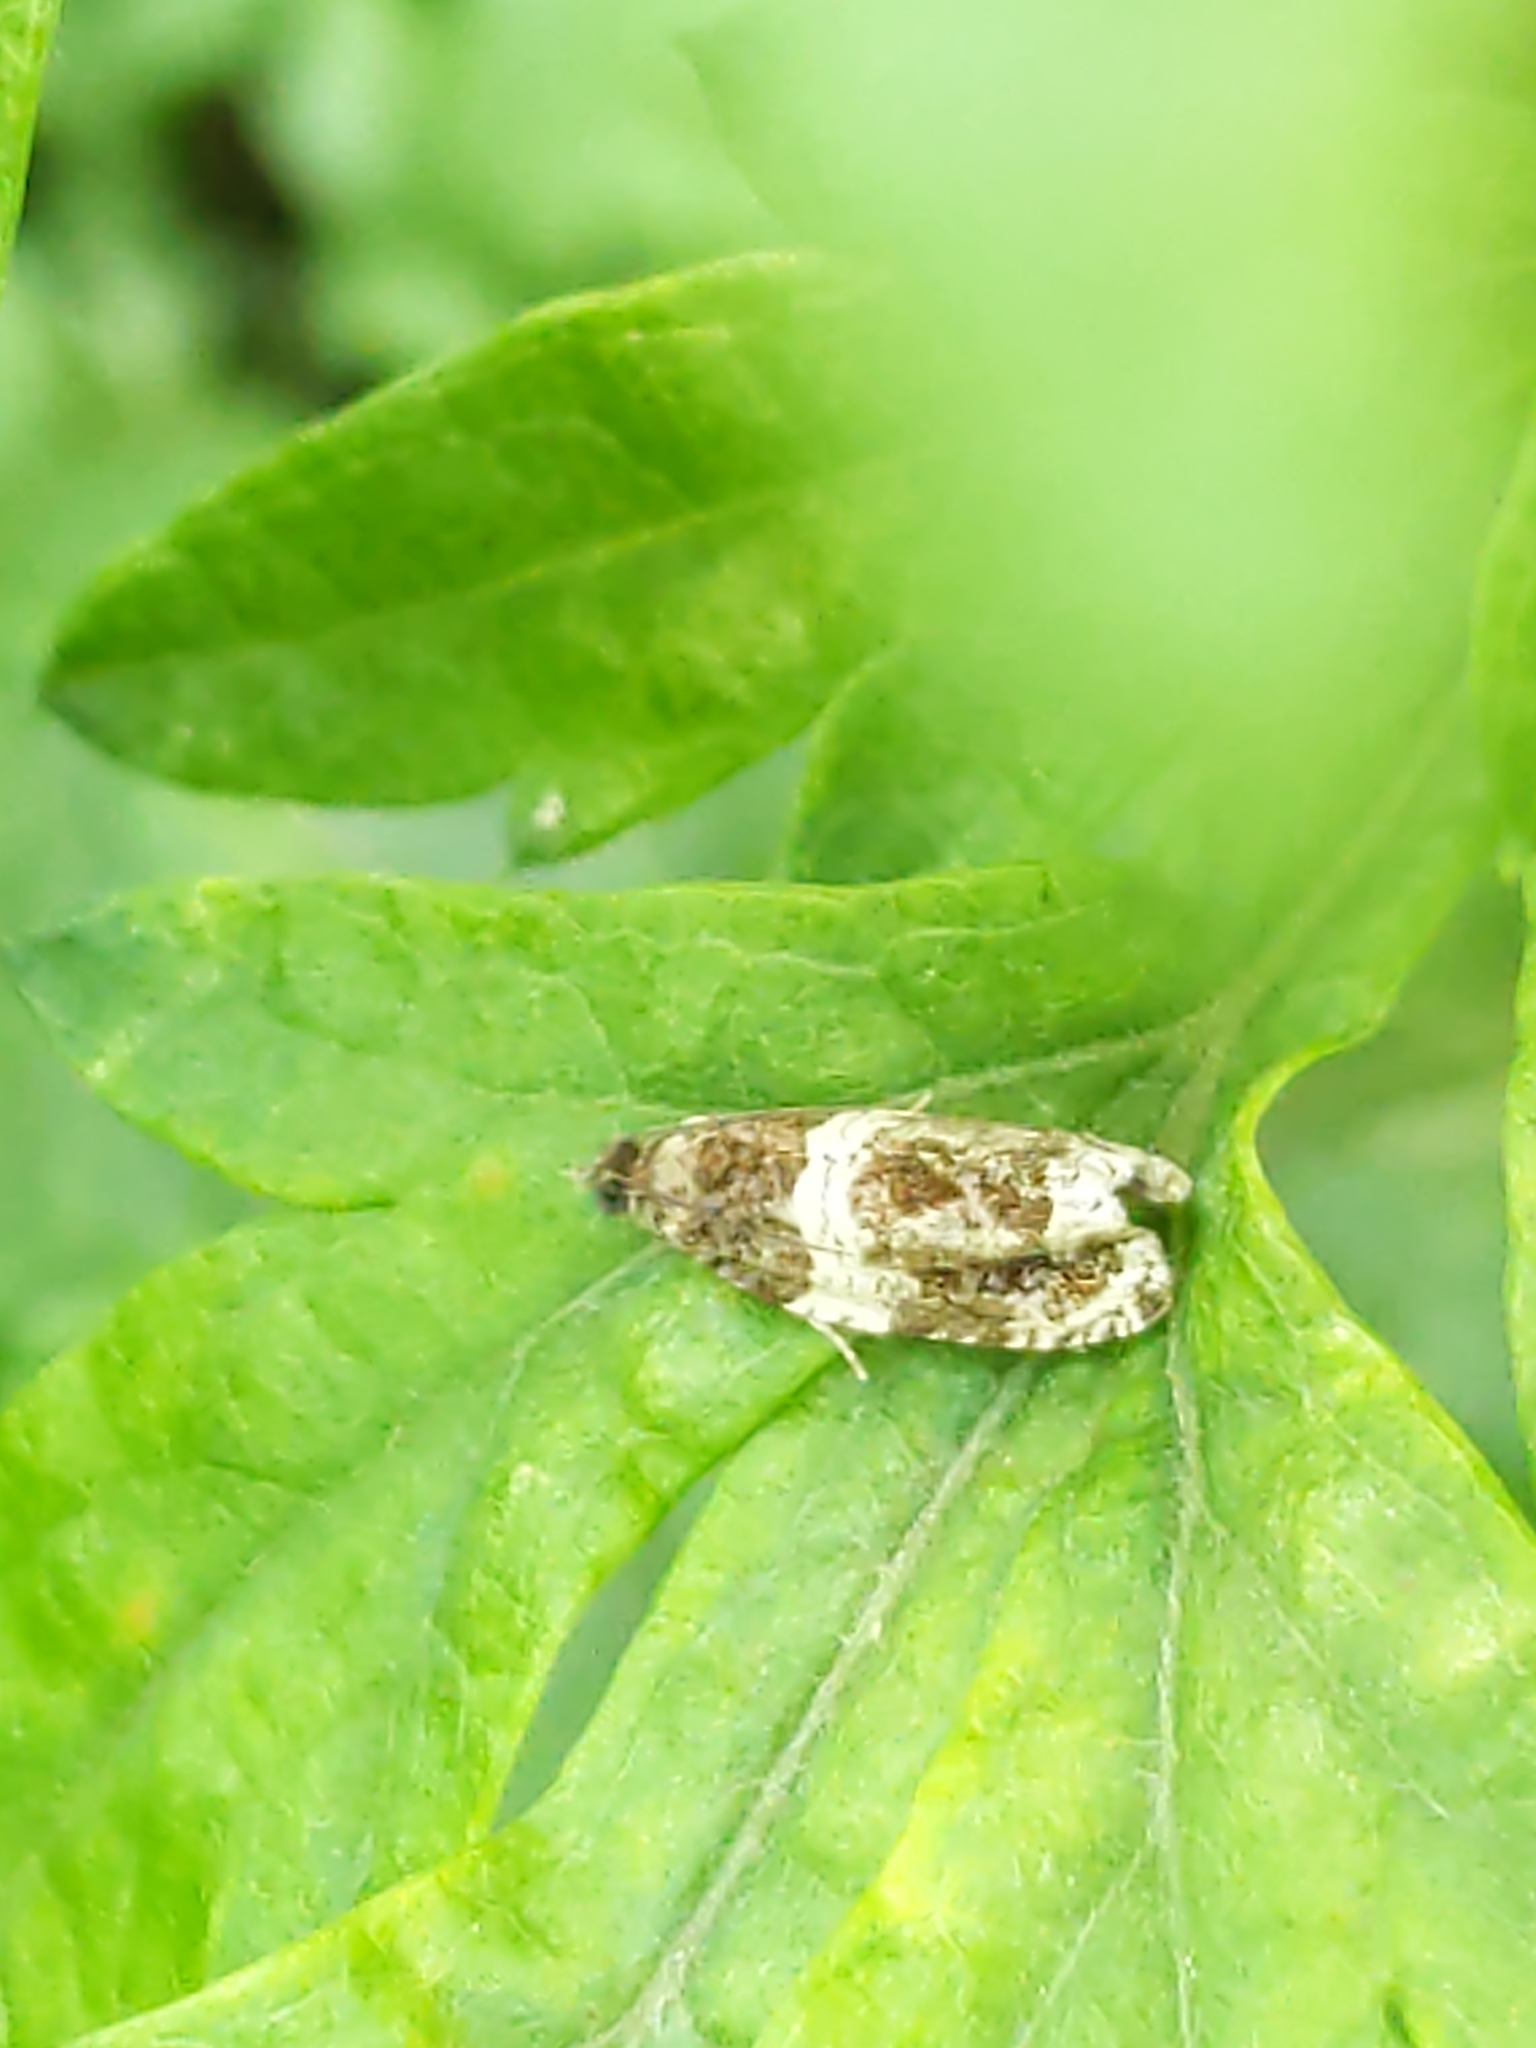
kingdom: Animalia
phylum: Arthropoda
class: Insecta
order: Lepidoptera
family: Tortricidae
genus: Olethreutes
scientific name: Olethreutes fasciatana
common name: Banded olethreutes moth
